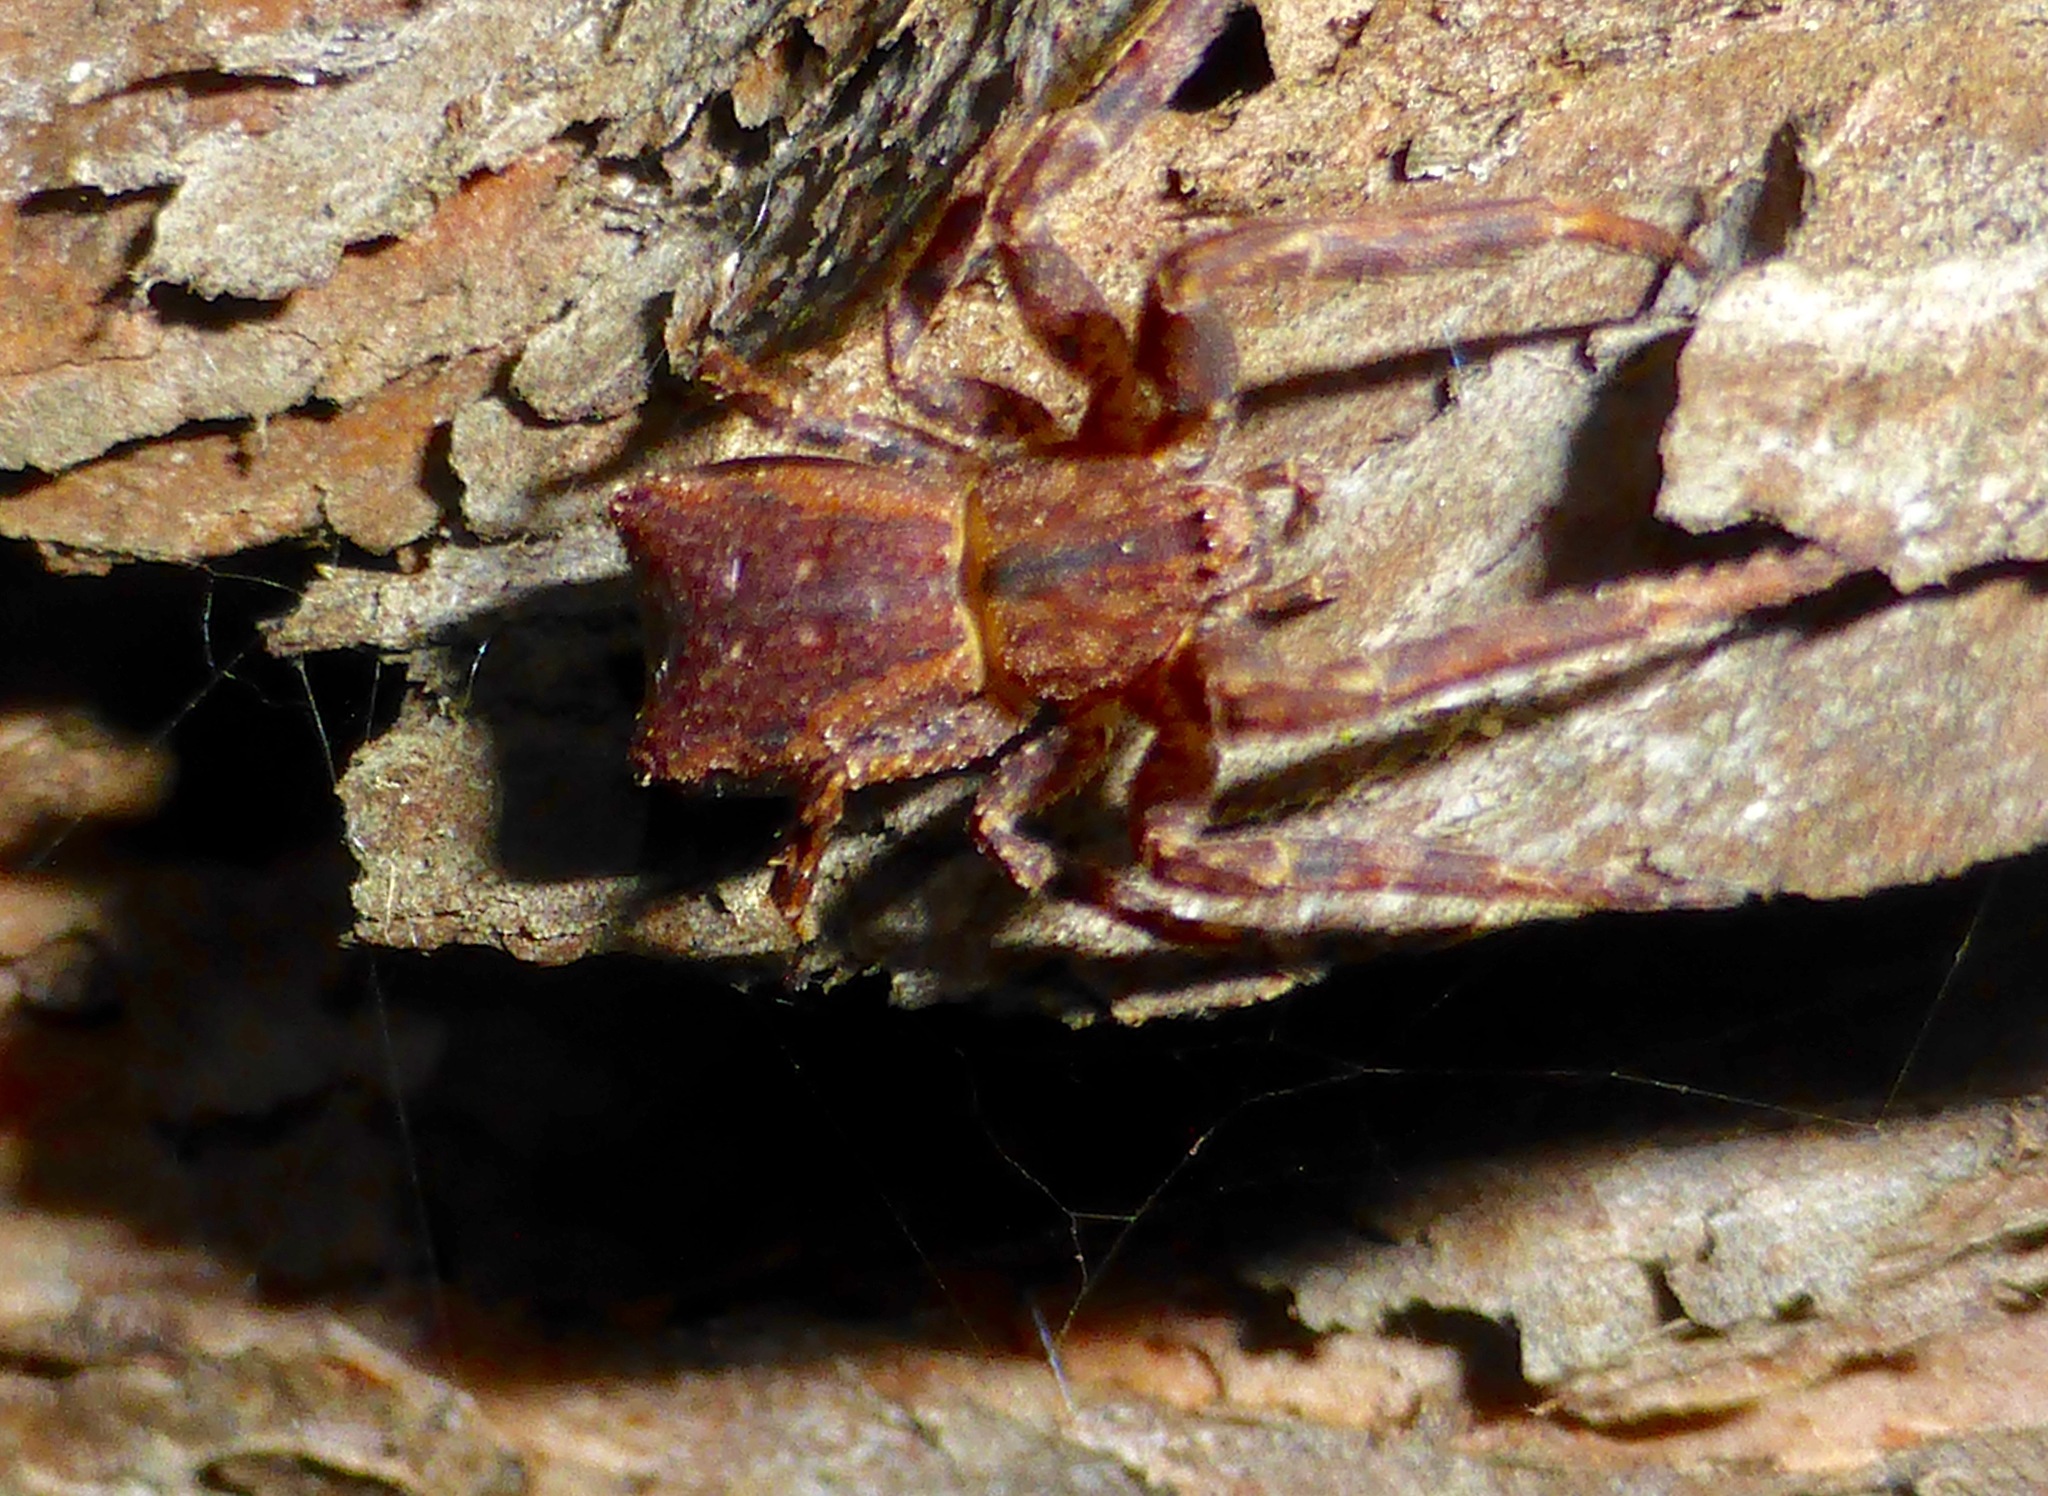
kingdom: Animalia
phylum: Arthropoda
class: Arachnida
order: Araneae
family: Thomisidae
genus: Sidymella
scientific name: Sidymella angulata
